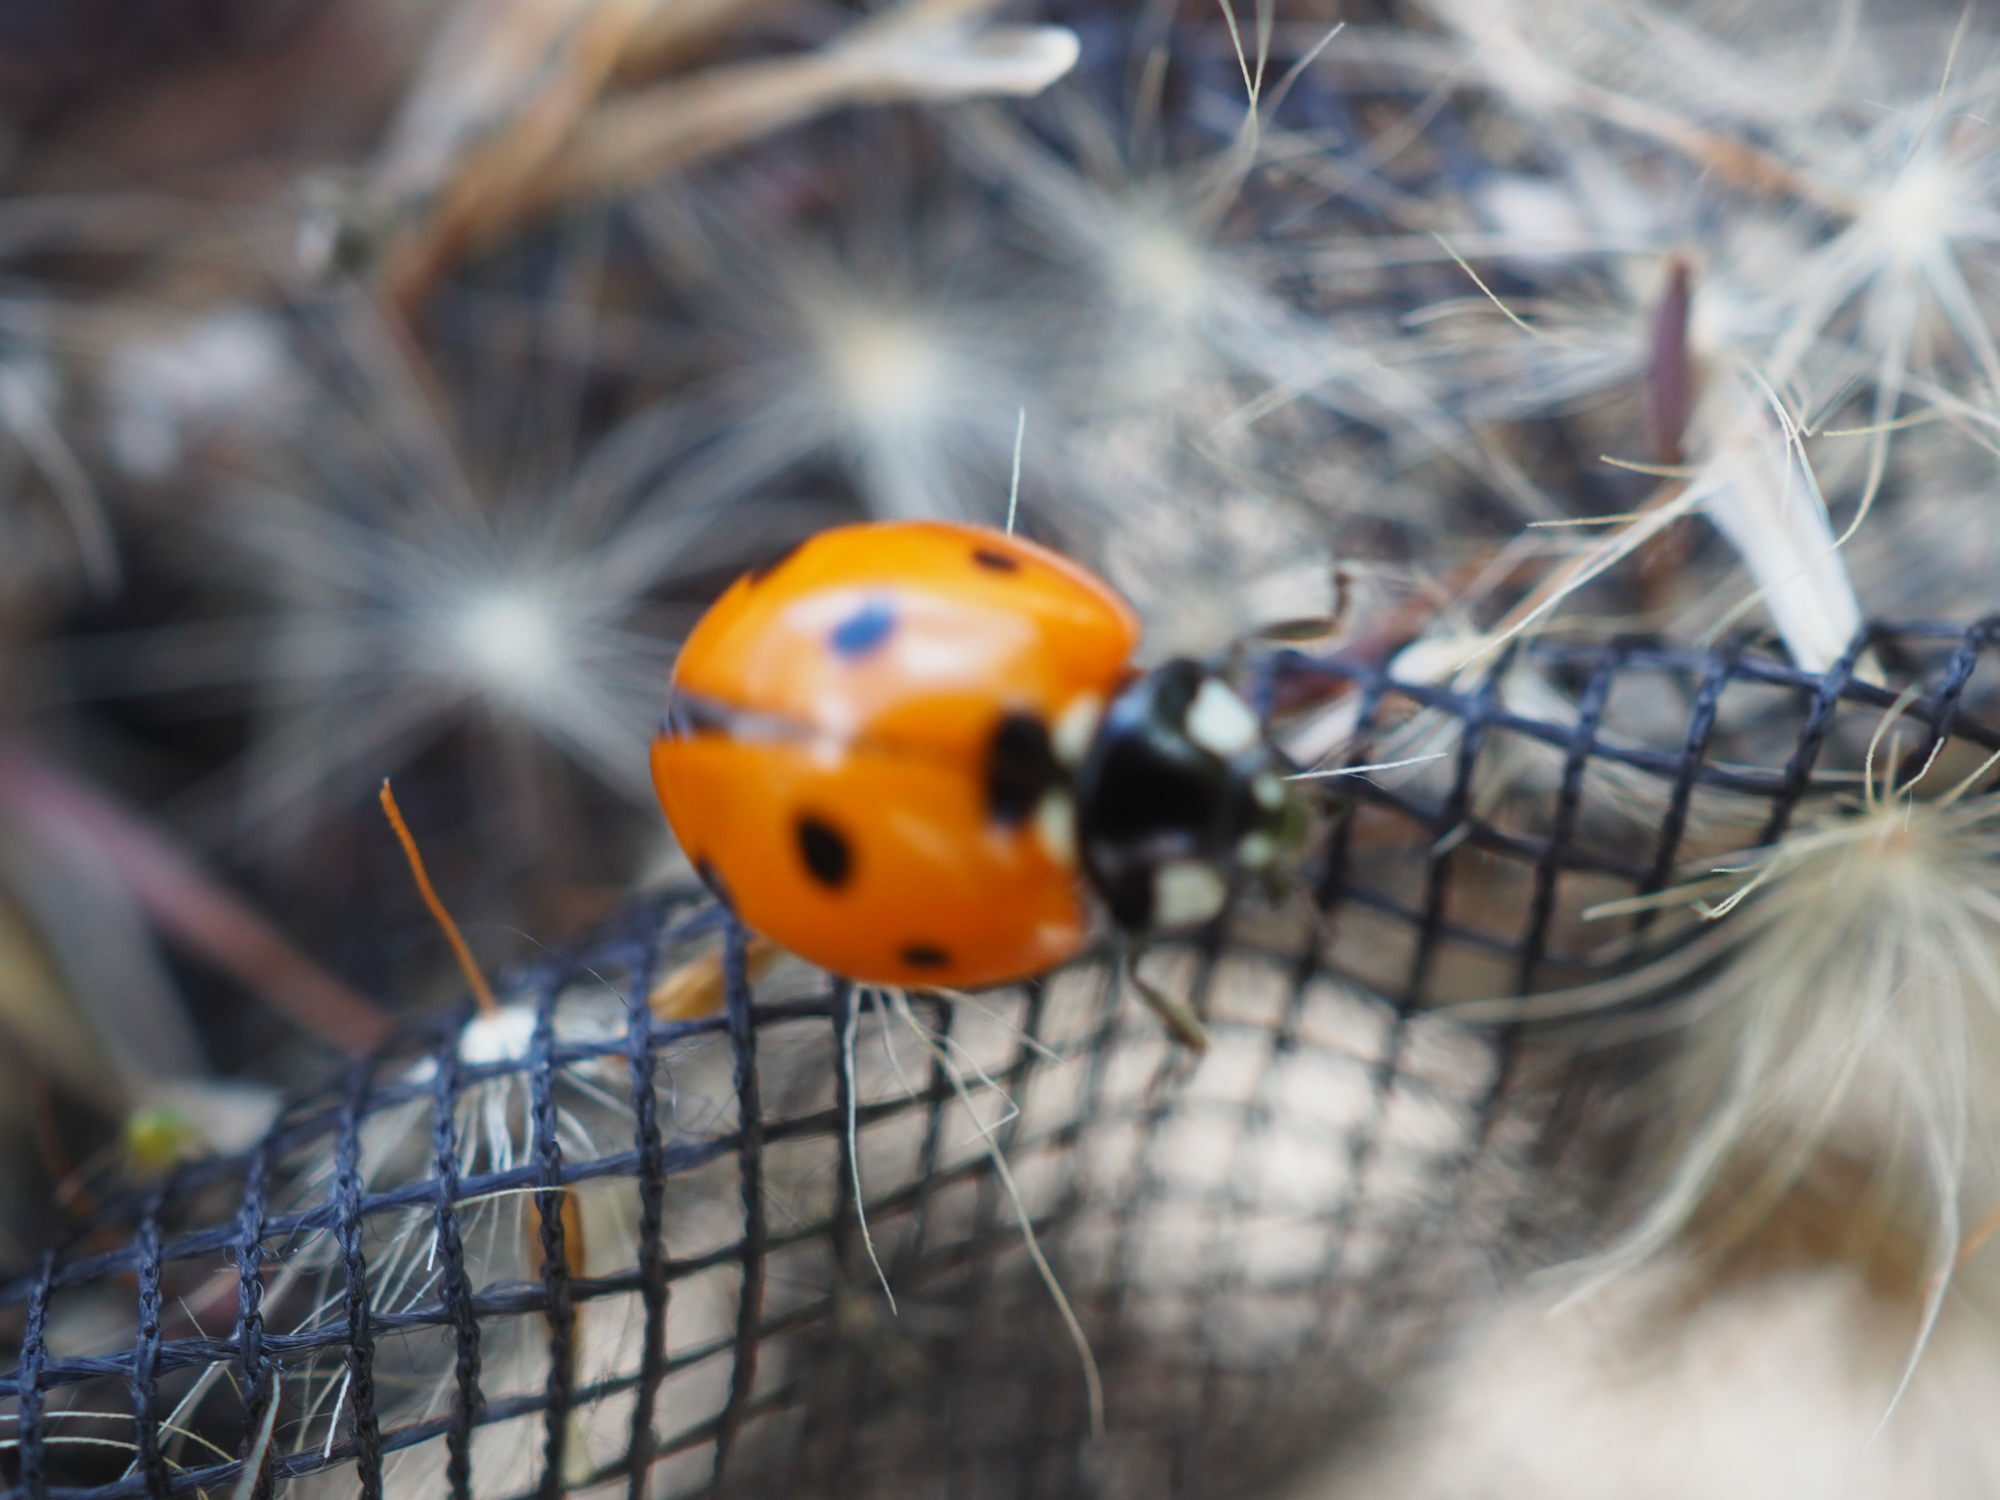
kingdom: Animalia
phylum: Arthropoda
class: Insecta
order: Coleoptera
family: Coccinellidae
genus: Coccinella
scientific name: Coccinella septempunctata
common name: Sevenspotted lady beetle
